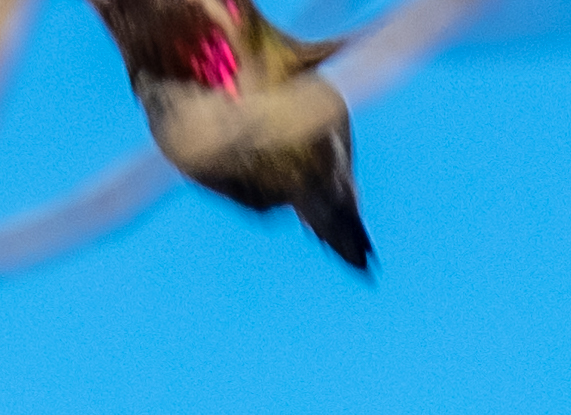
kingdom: Animalia
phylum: Chordata
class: Aves
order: Apodiformes
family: Trochilidae
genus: Calypte
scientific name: Calypte anna
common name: Anna's hummingbird
